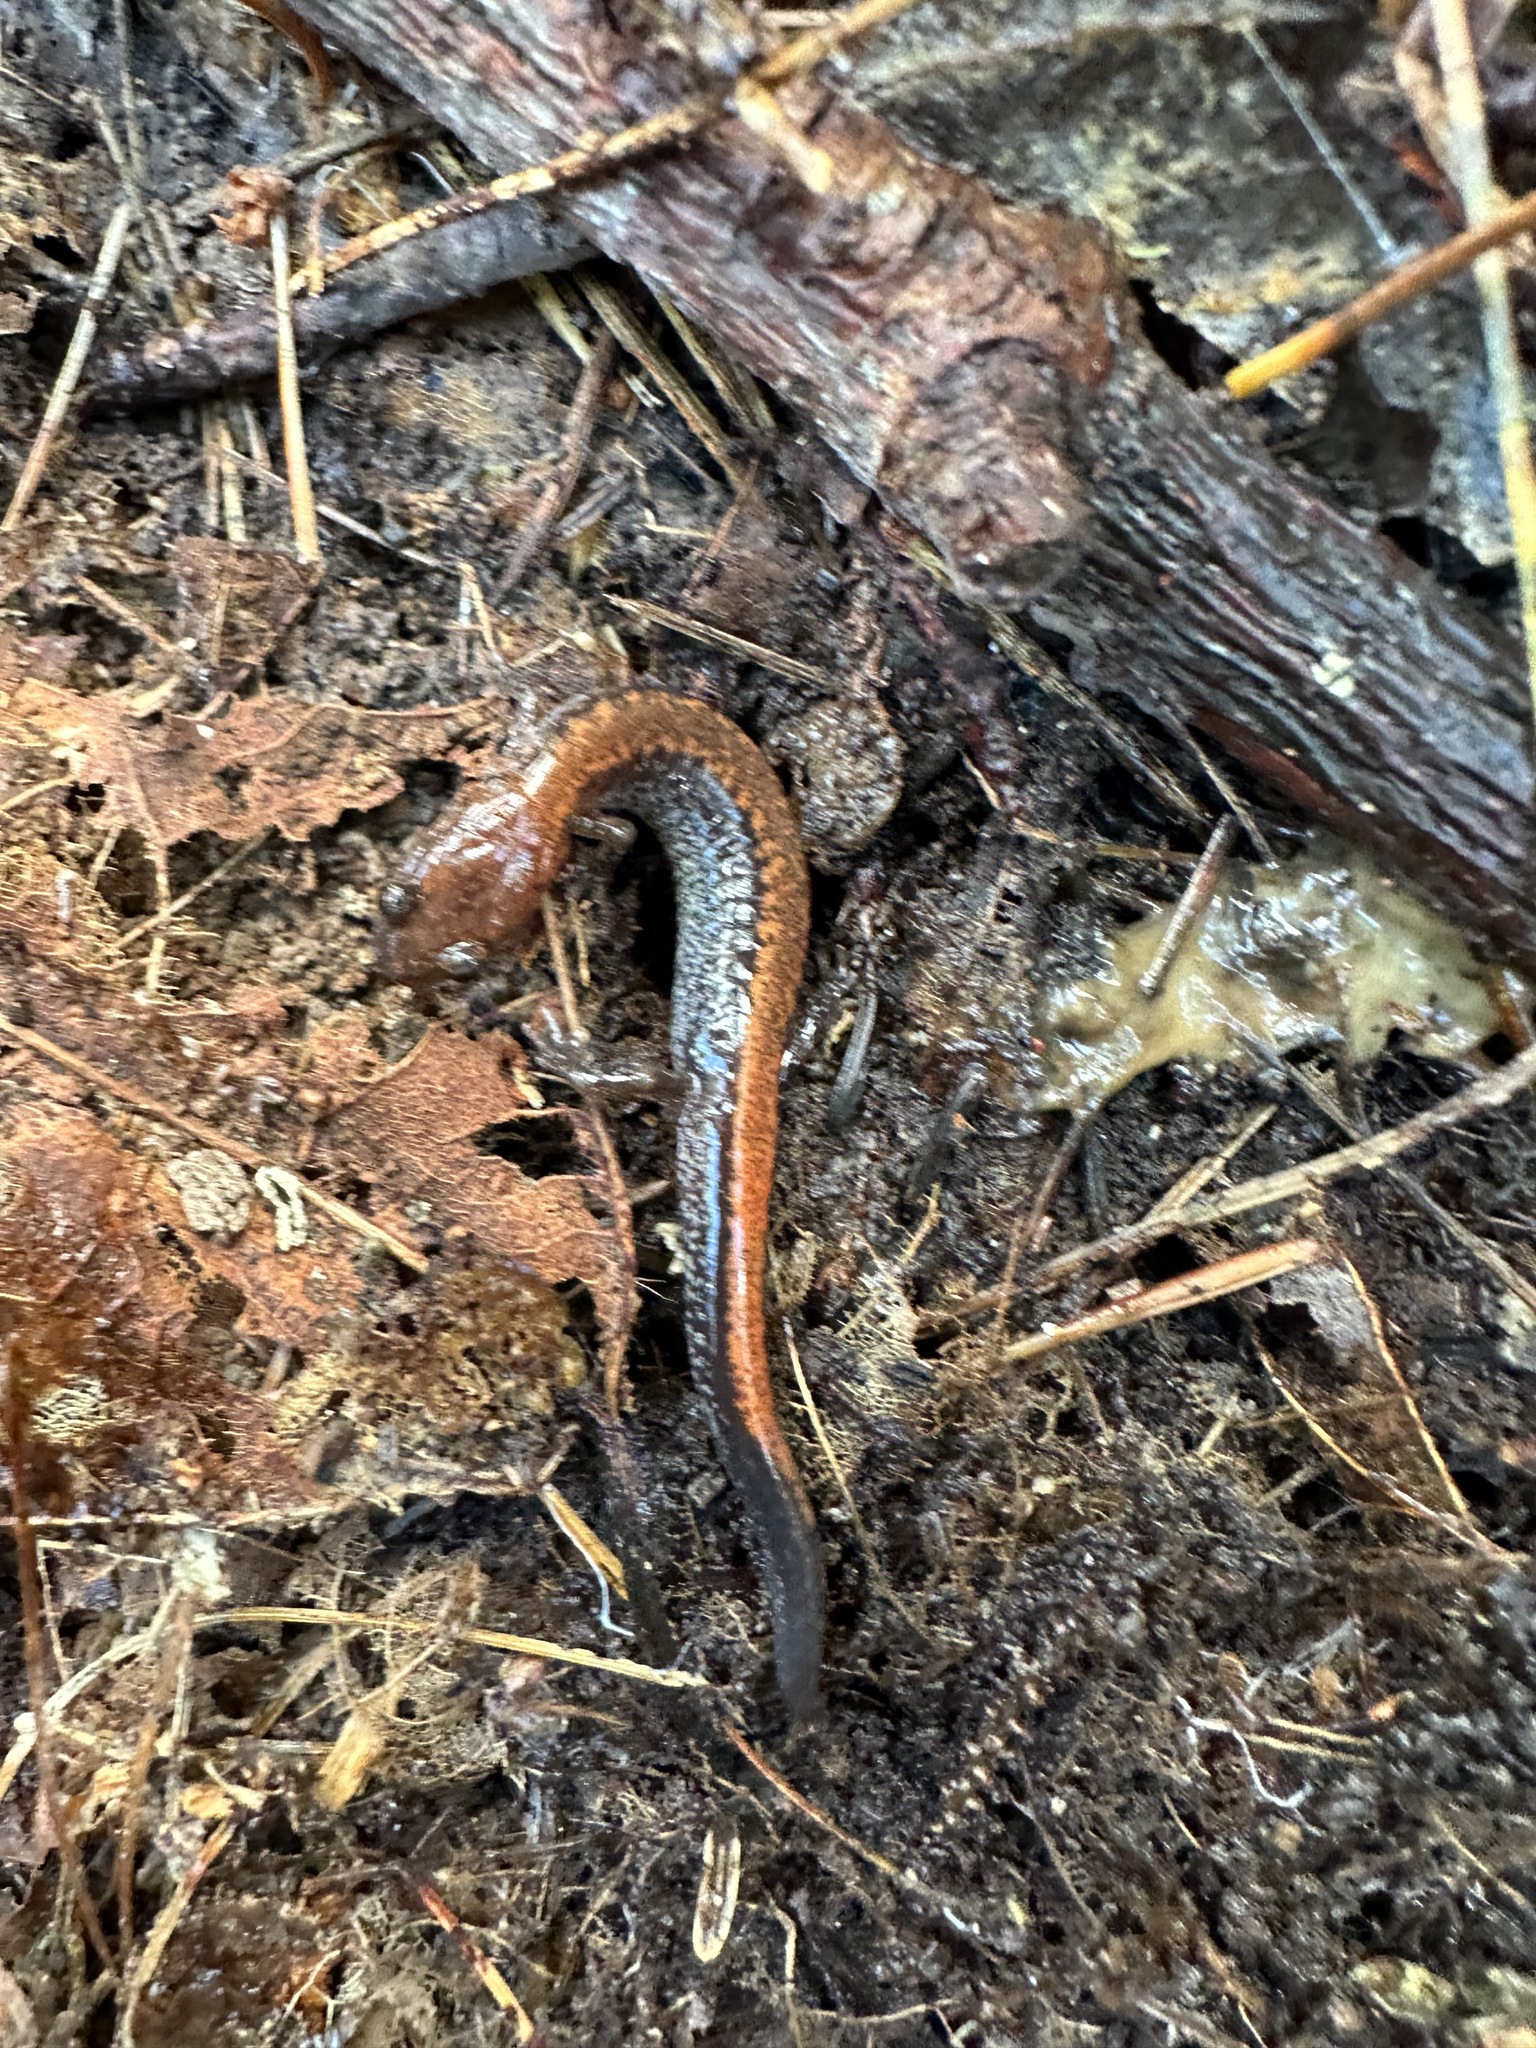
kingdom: Animalia
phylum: Chordata
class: Amphibia
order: Caudata
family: Plethodontidae
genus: Plethodon
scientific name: Plethodon cinereus
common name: Redback salamander
